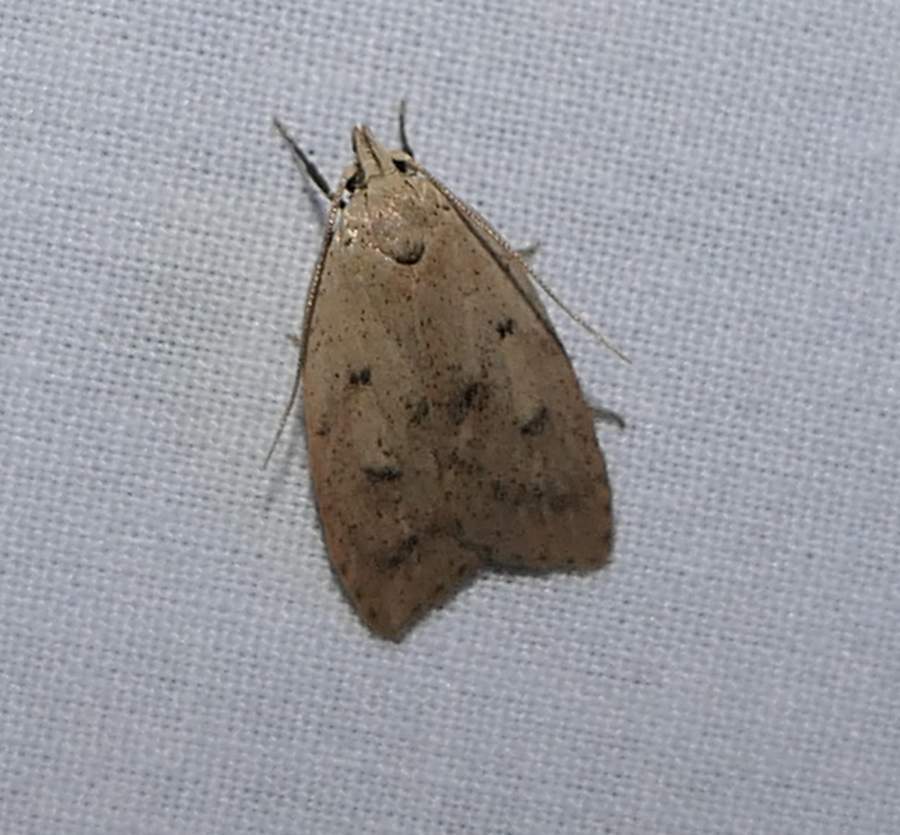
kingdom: Animalia
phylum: Arthropoda
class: Insecta
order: Lepidoptera
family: Peleopodidae
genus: Machimia
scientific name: Machimia tentoriferella
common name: Gold-striped leaftier moth
